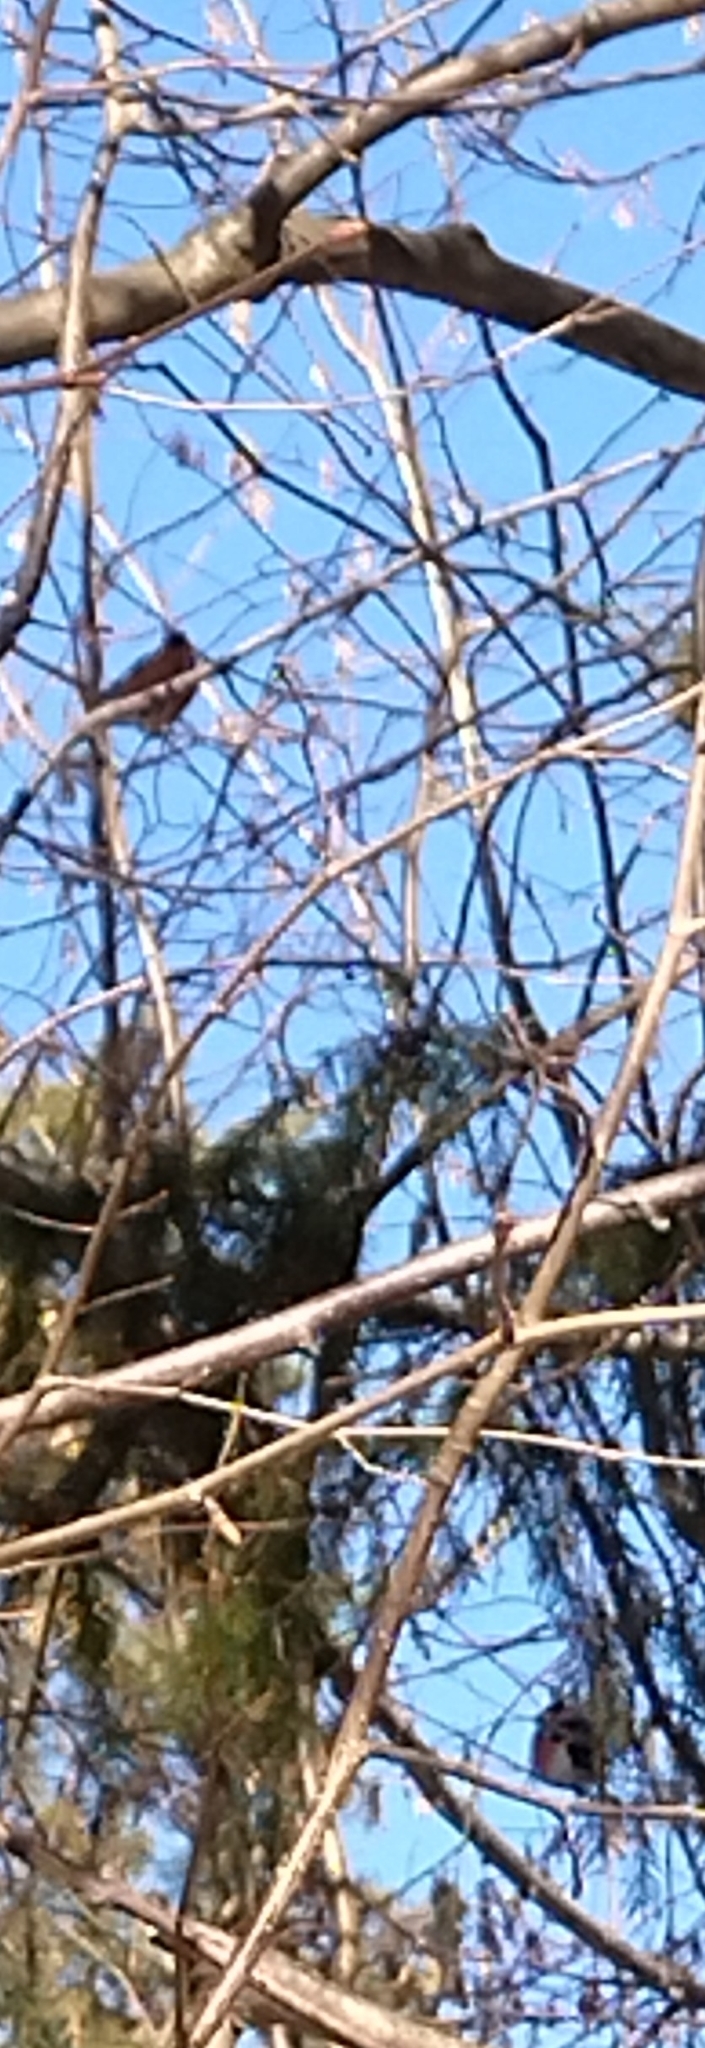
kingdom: Animalia
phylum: Chordata
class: Aves
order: Passeriformes
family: Fringillidae
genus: Pyrrhula
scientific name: Pyrrhula pyrrhula
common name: Eurasian bullfinch
